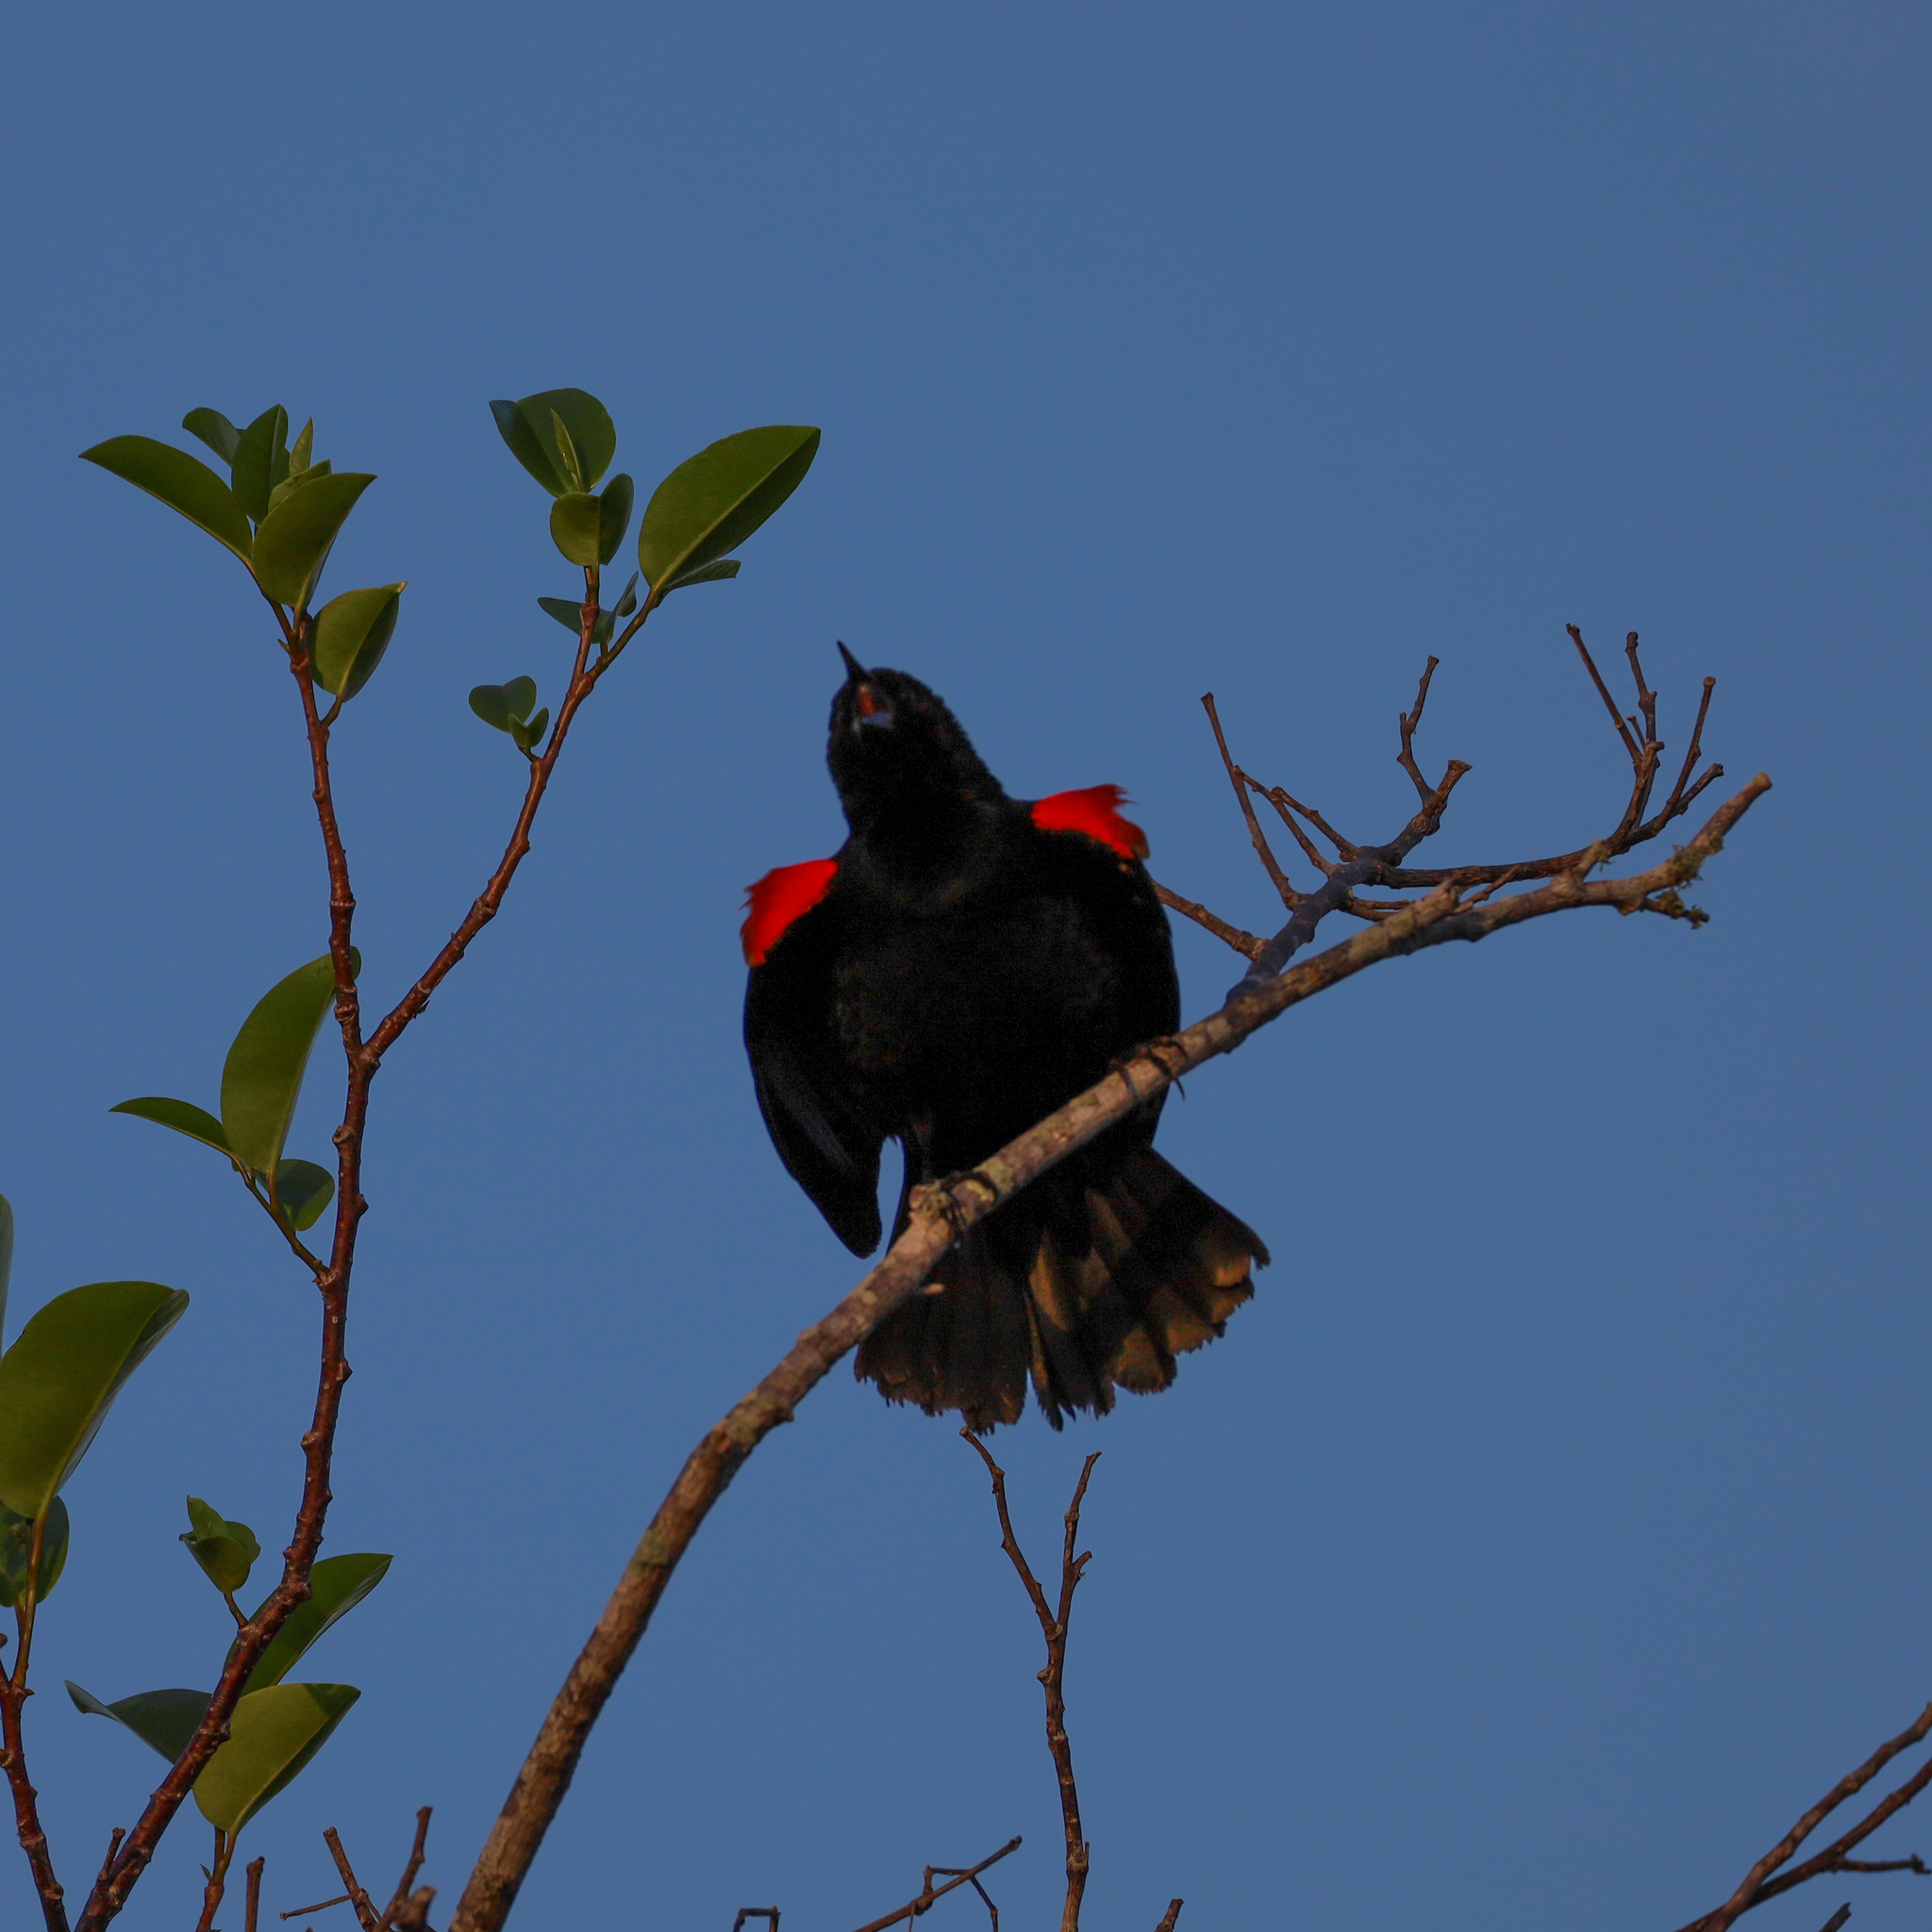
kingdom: Animalia
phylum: Chordata
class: Aves
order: Passeriformes
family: Icteridae
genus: Agelaius
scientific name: Agelaius phoeniceus
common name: Red-winged blackbird
